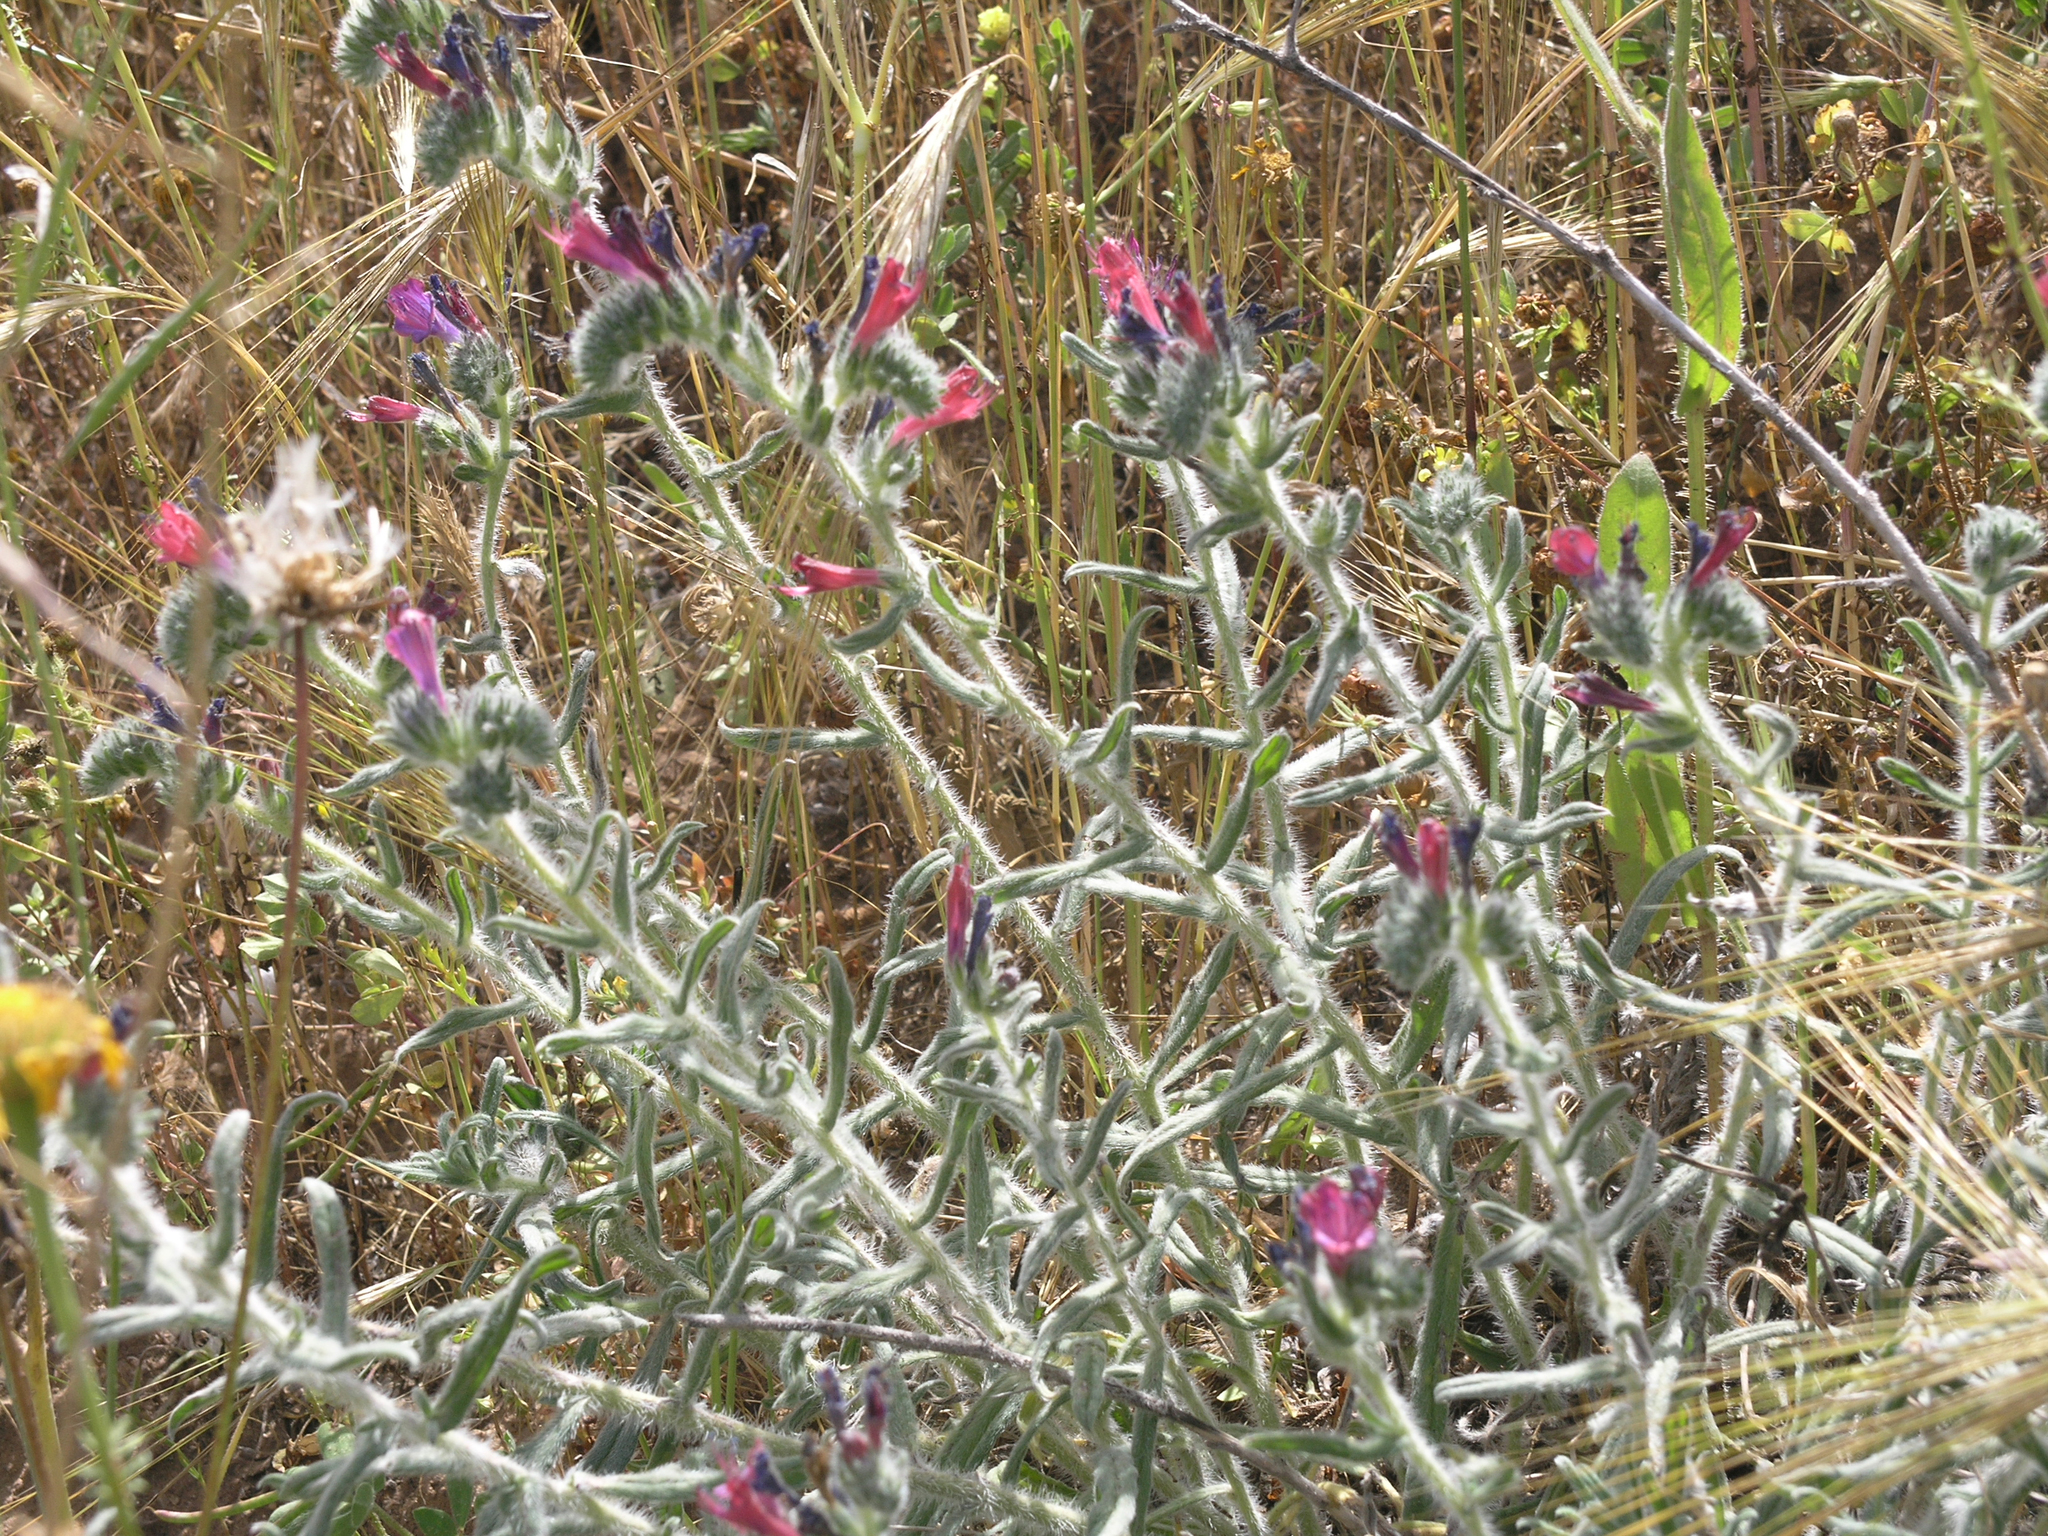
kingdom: Plantae
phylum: Tracheophyta
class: Magnoliopsida
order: Boraginales
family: Boraginaceae
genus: Echium
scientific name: Echium angustifolium
